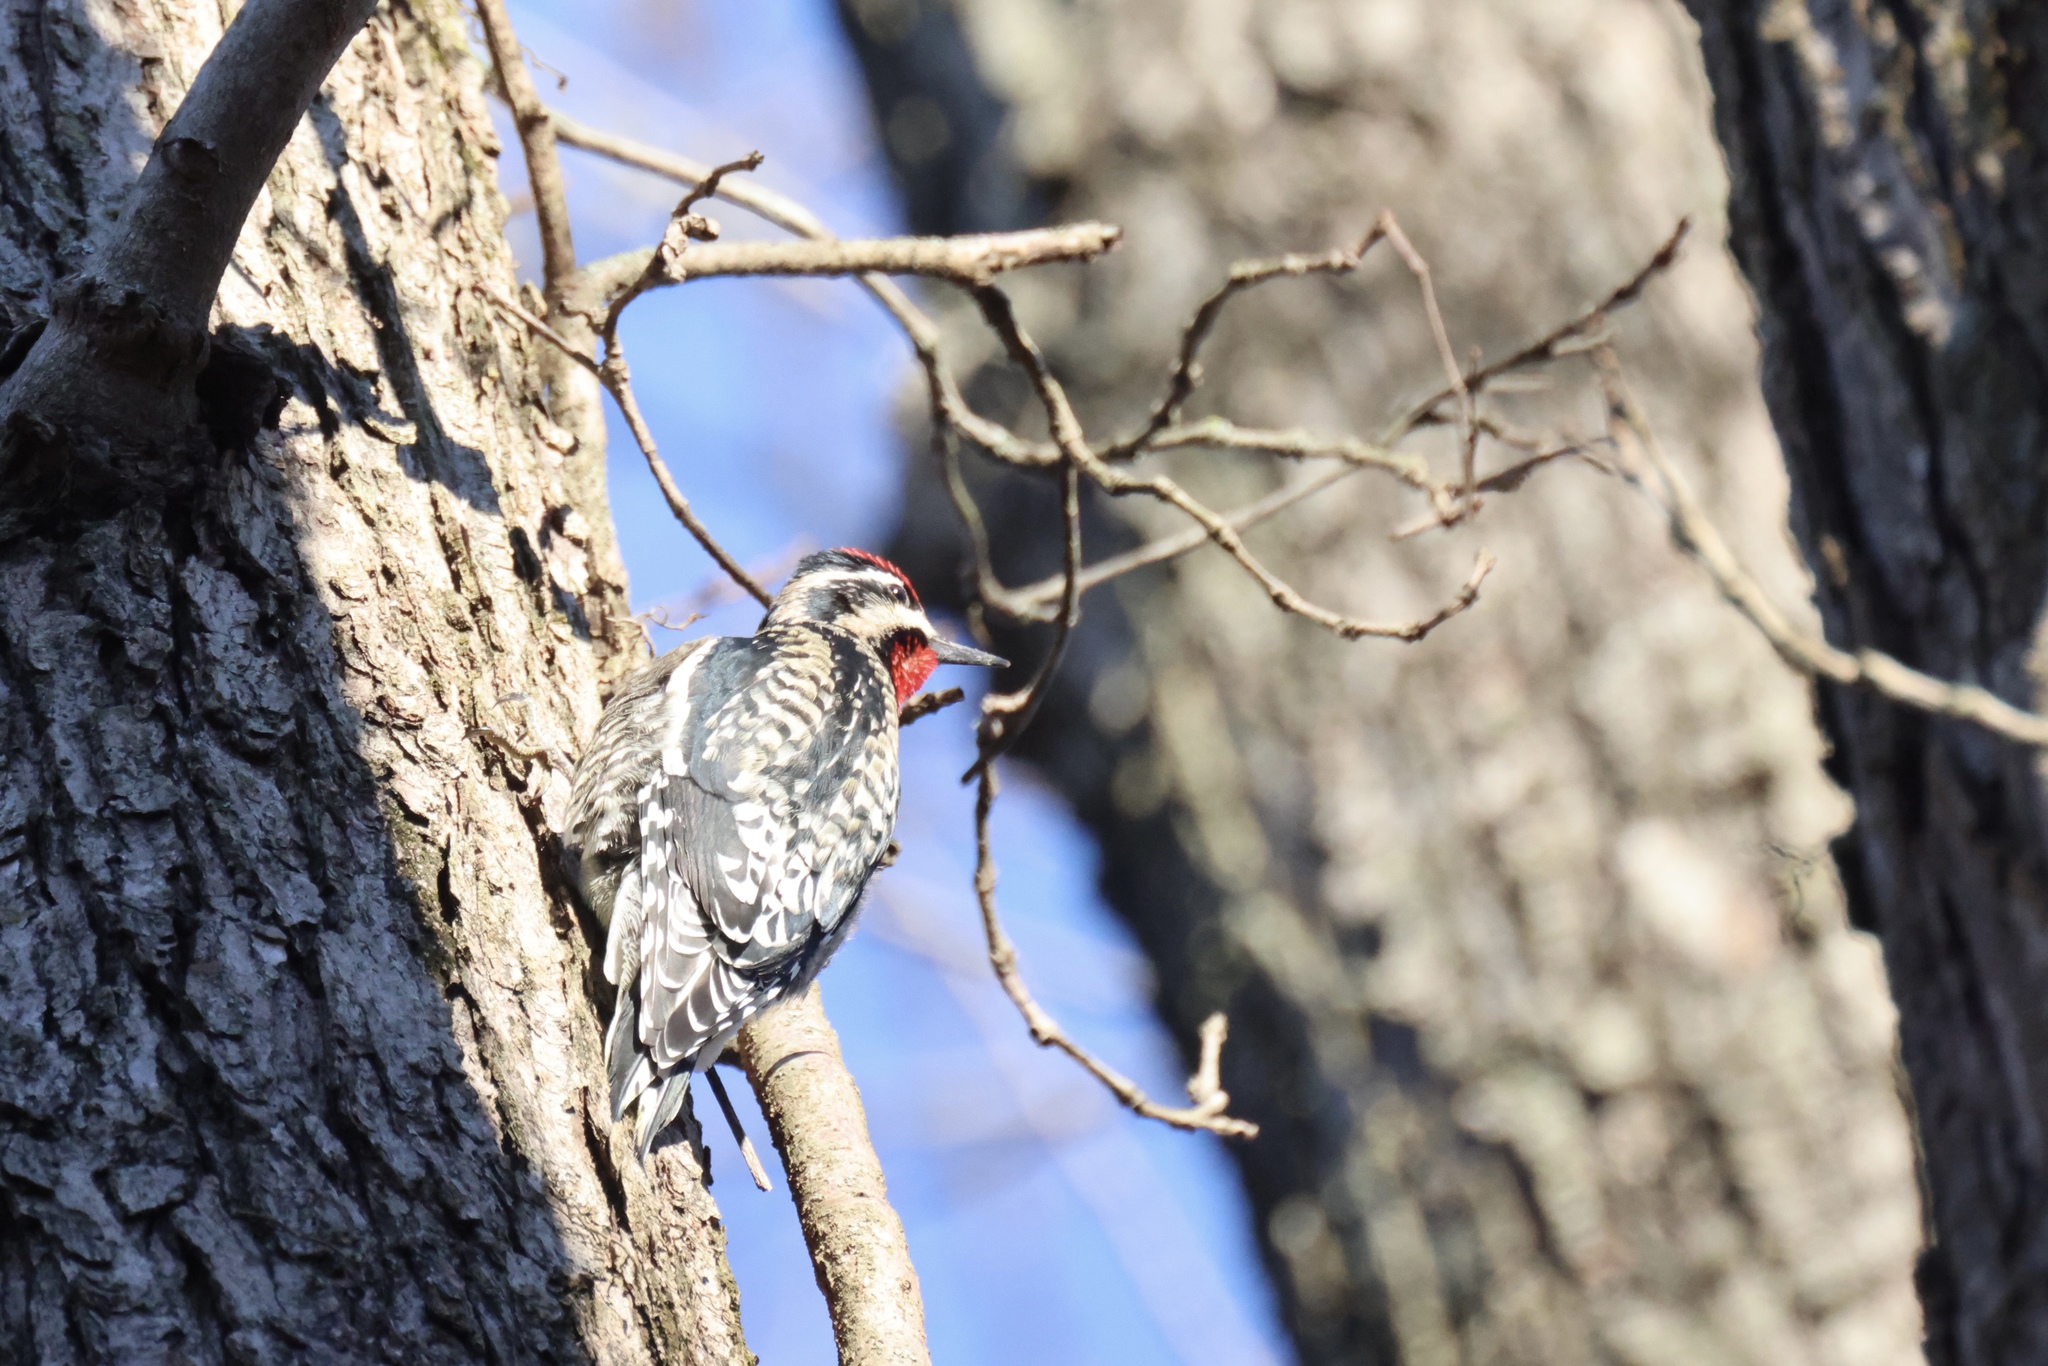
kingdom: Animalia
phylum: Chordata
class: Aves
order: Piciformes
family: Picidae
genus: Sphyrapicus
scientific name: Sphyrapicus varius
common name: Yellow-bellied sapsucker
